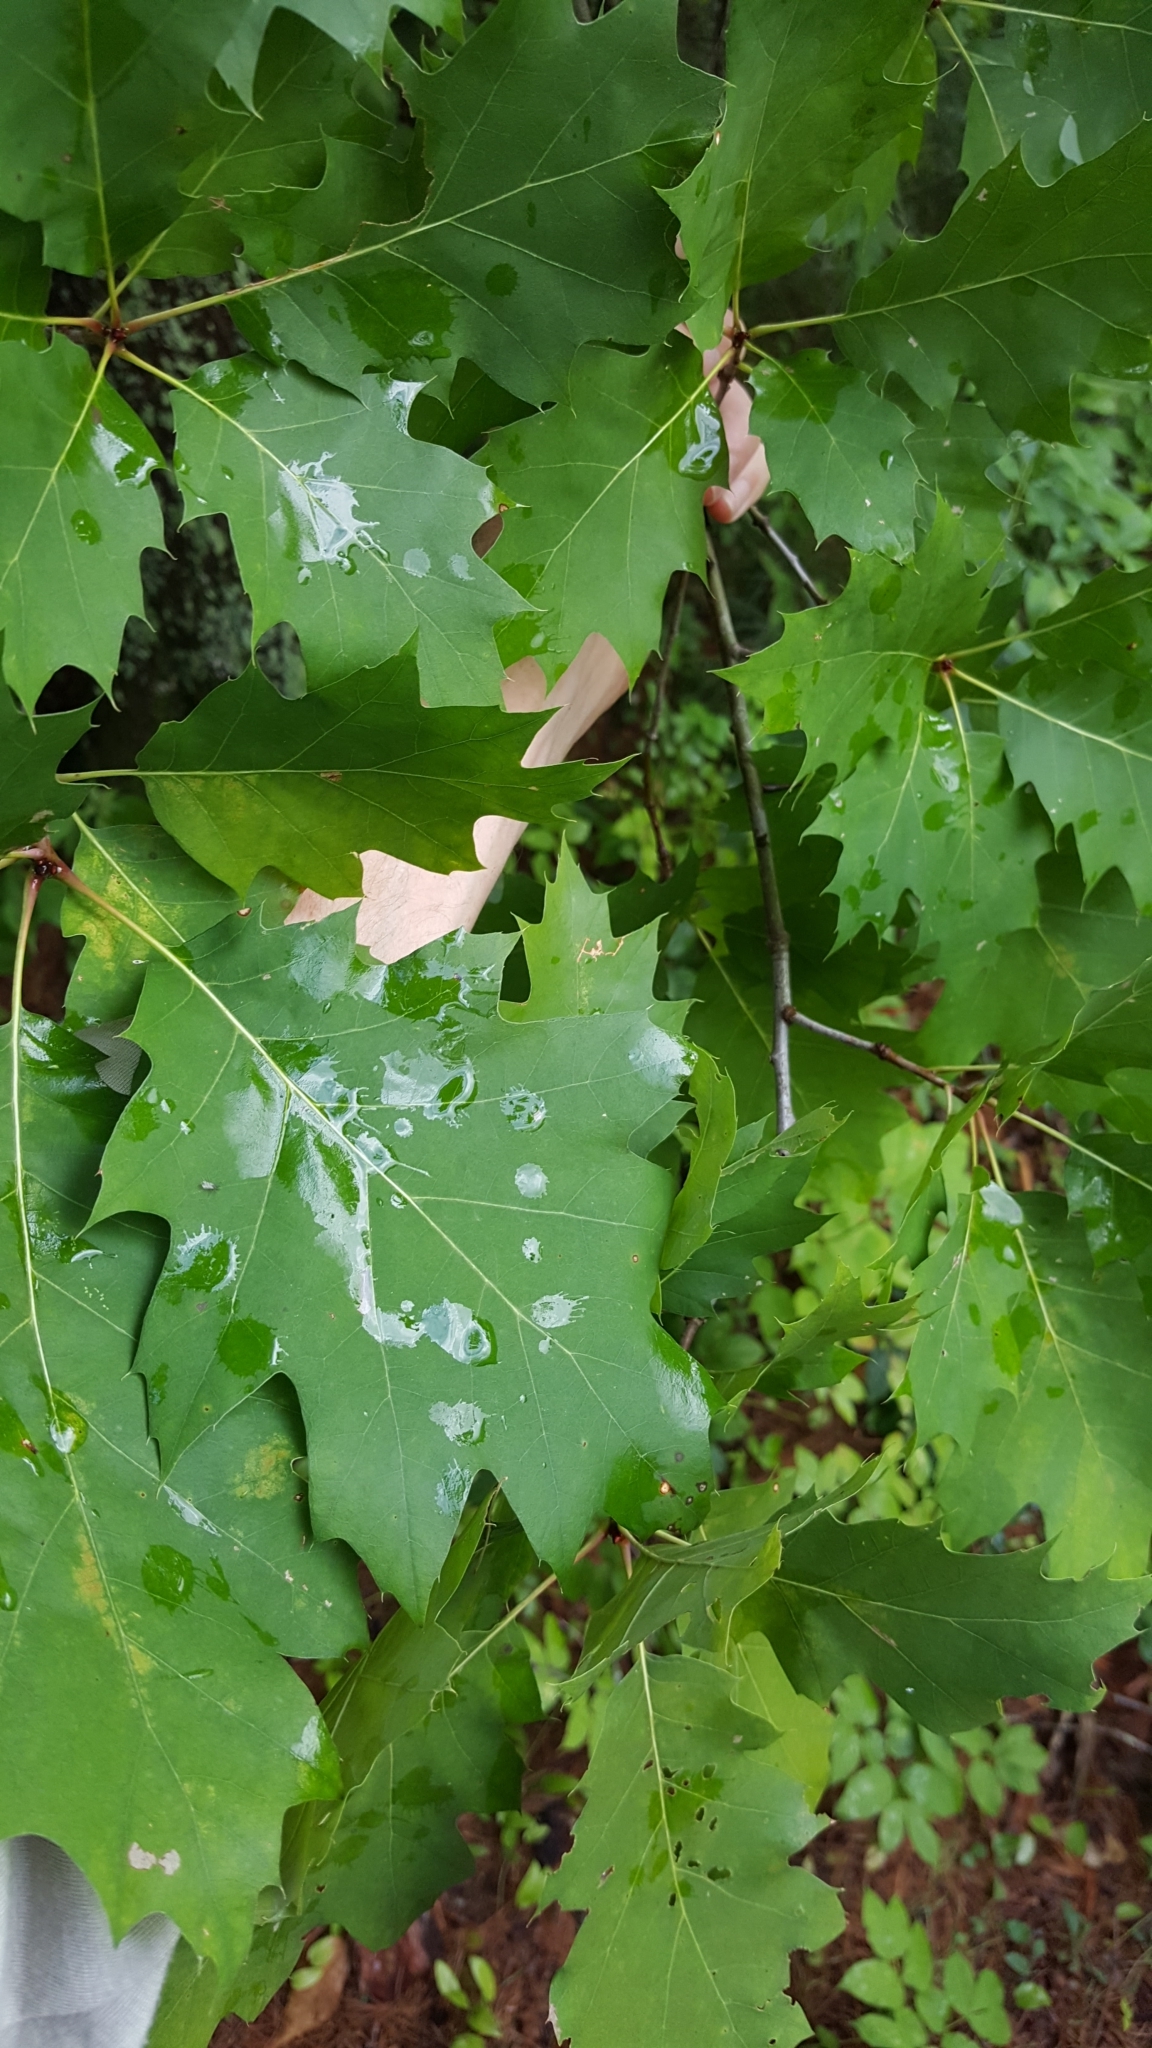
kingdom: Plantae
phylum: Tracheophyta
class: Magnoliopsida
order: Fagales
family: Fagaceae
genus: Quercus
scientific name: Quercus rubra
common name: Red oak
